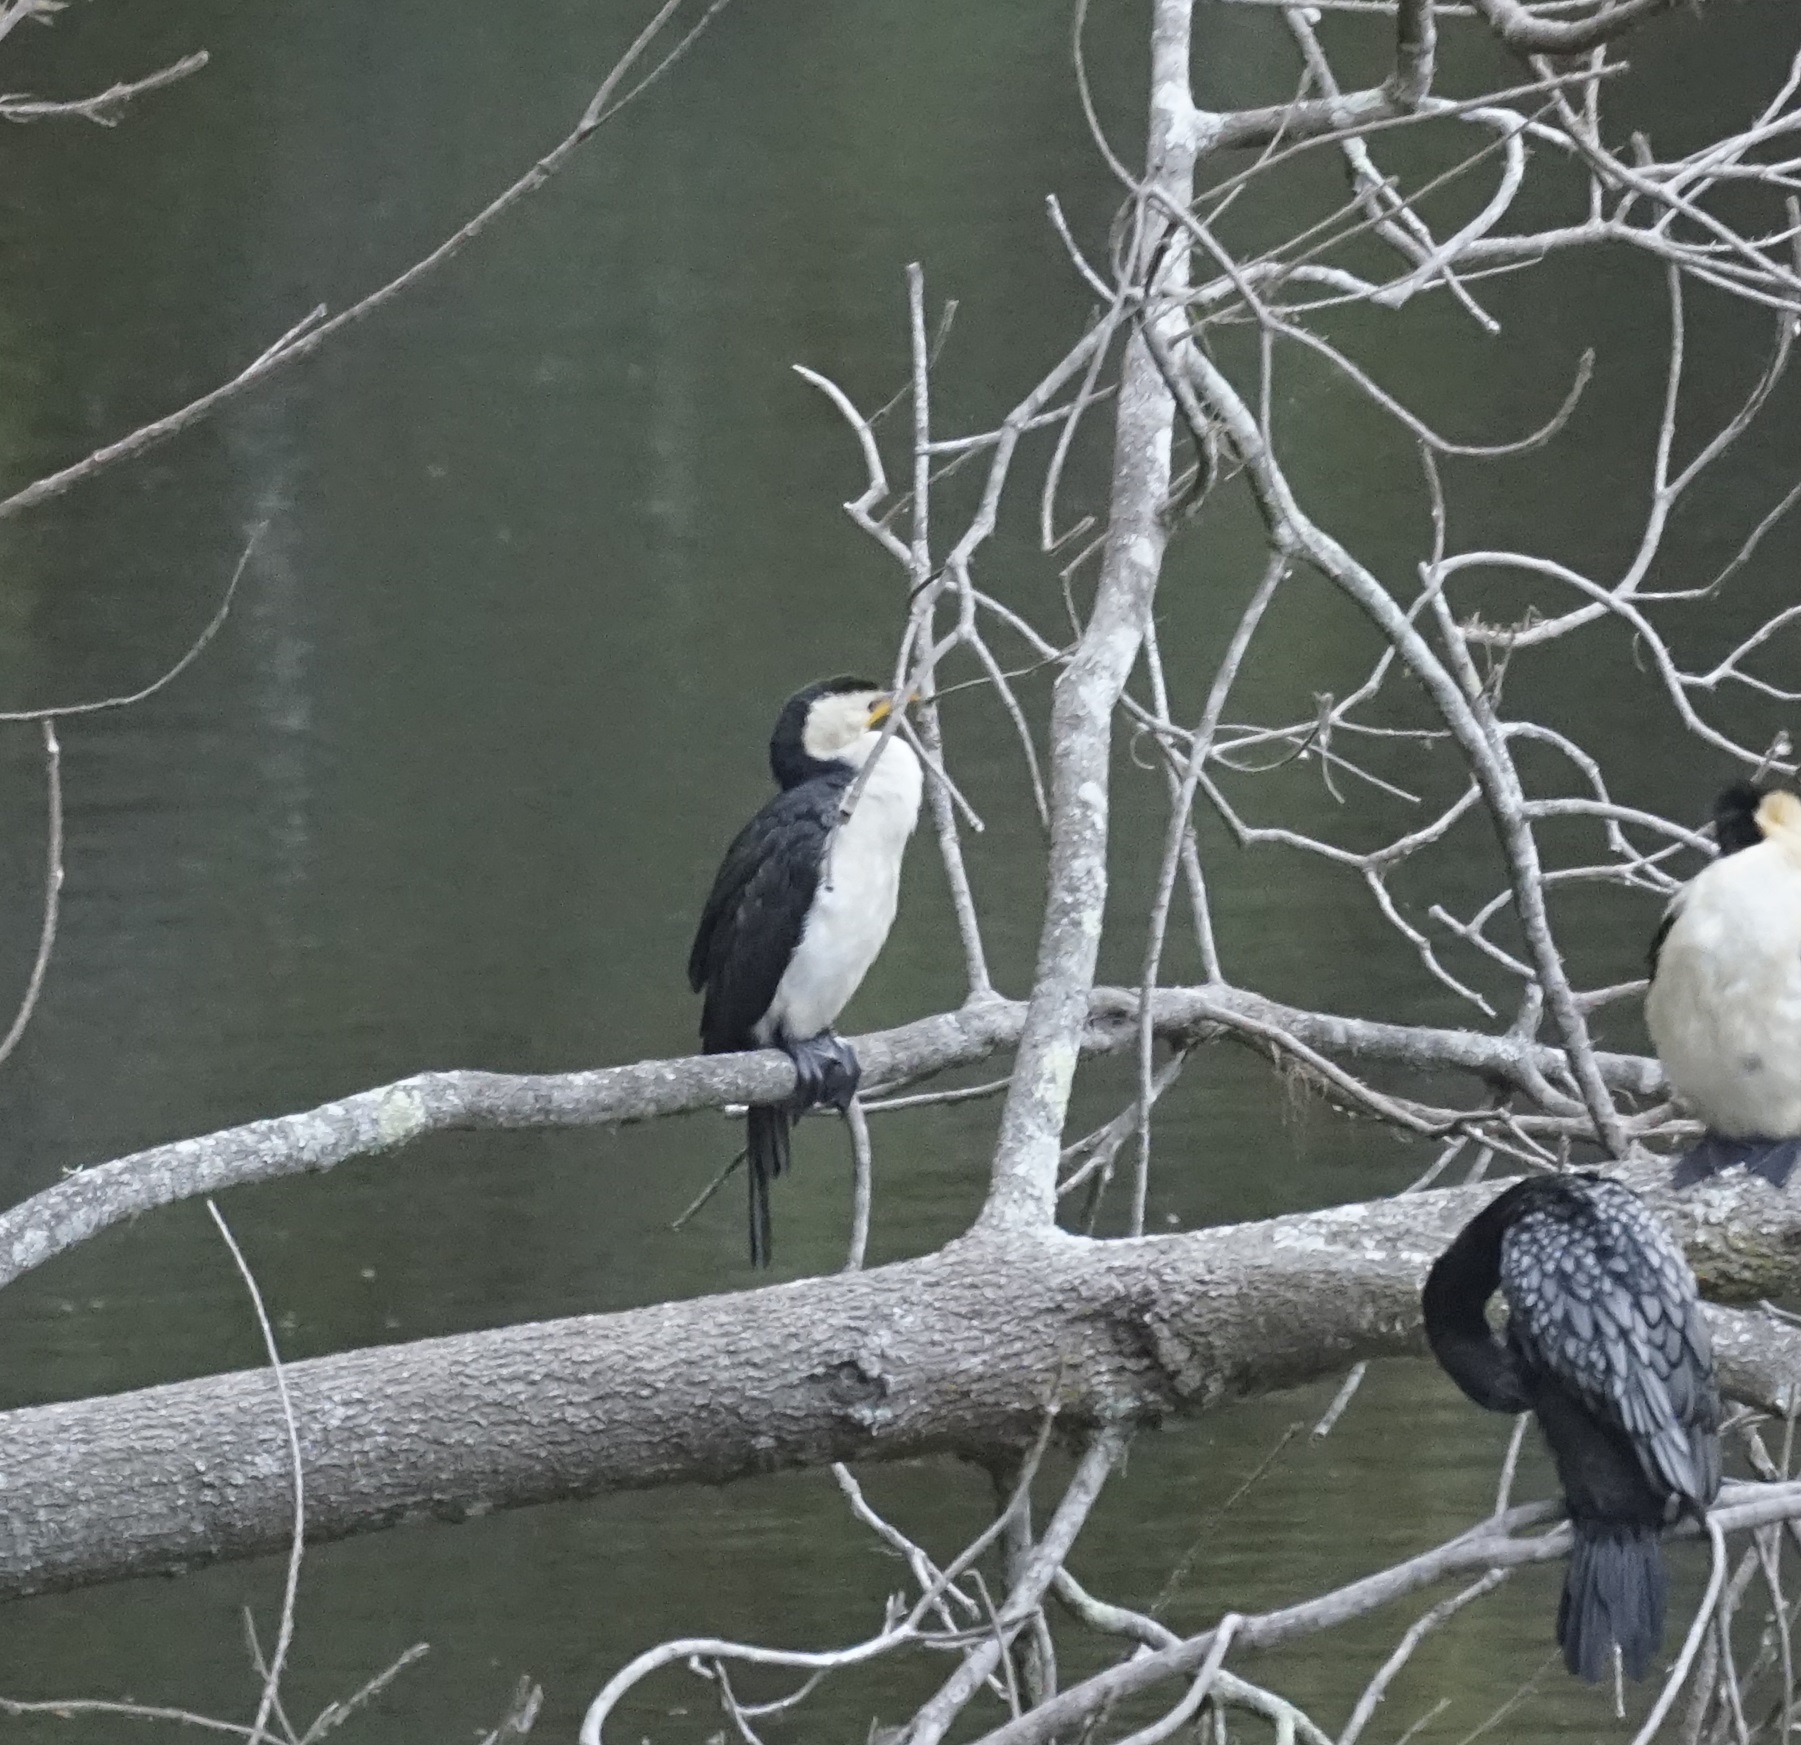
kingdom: Animalia
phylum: Chordata
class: Aves
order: Suliformes
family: Phalacrocoracidae
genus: Microcarbo
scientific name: Microcarbo melanoleucos
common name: Little pied cormorant
